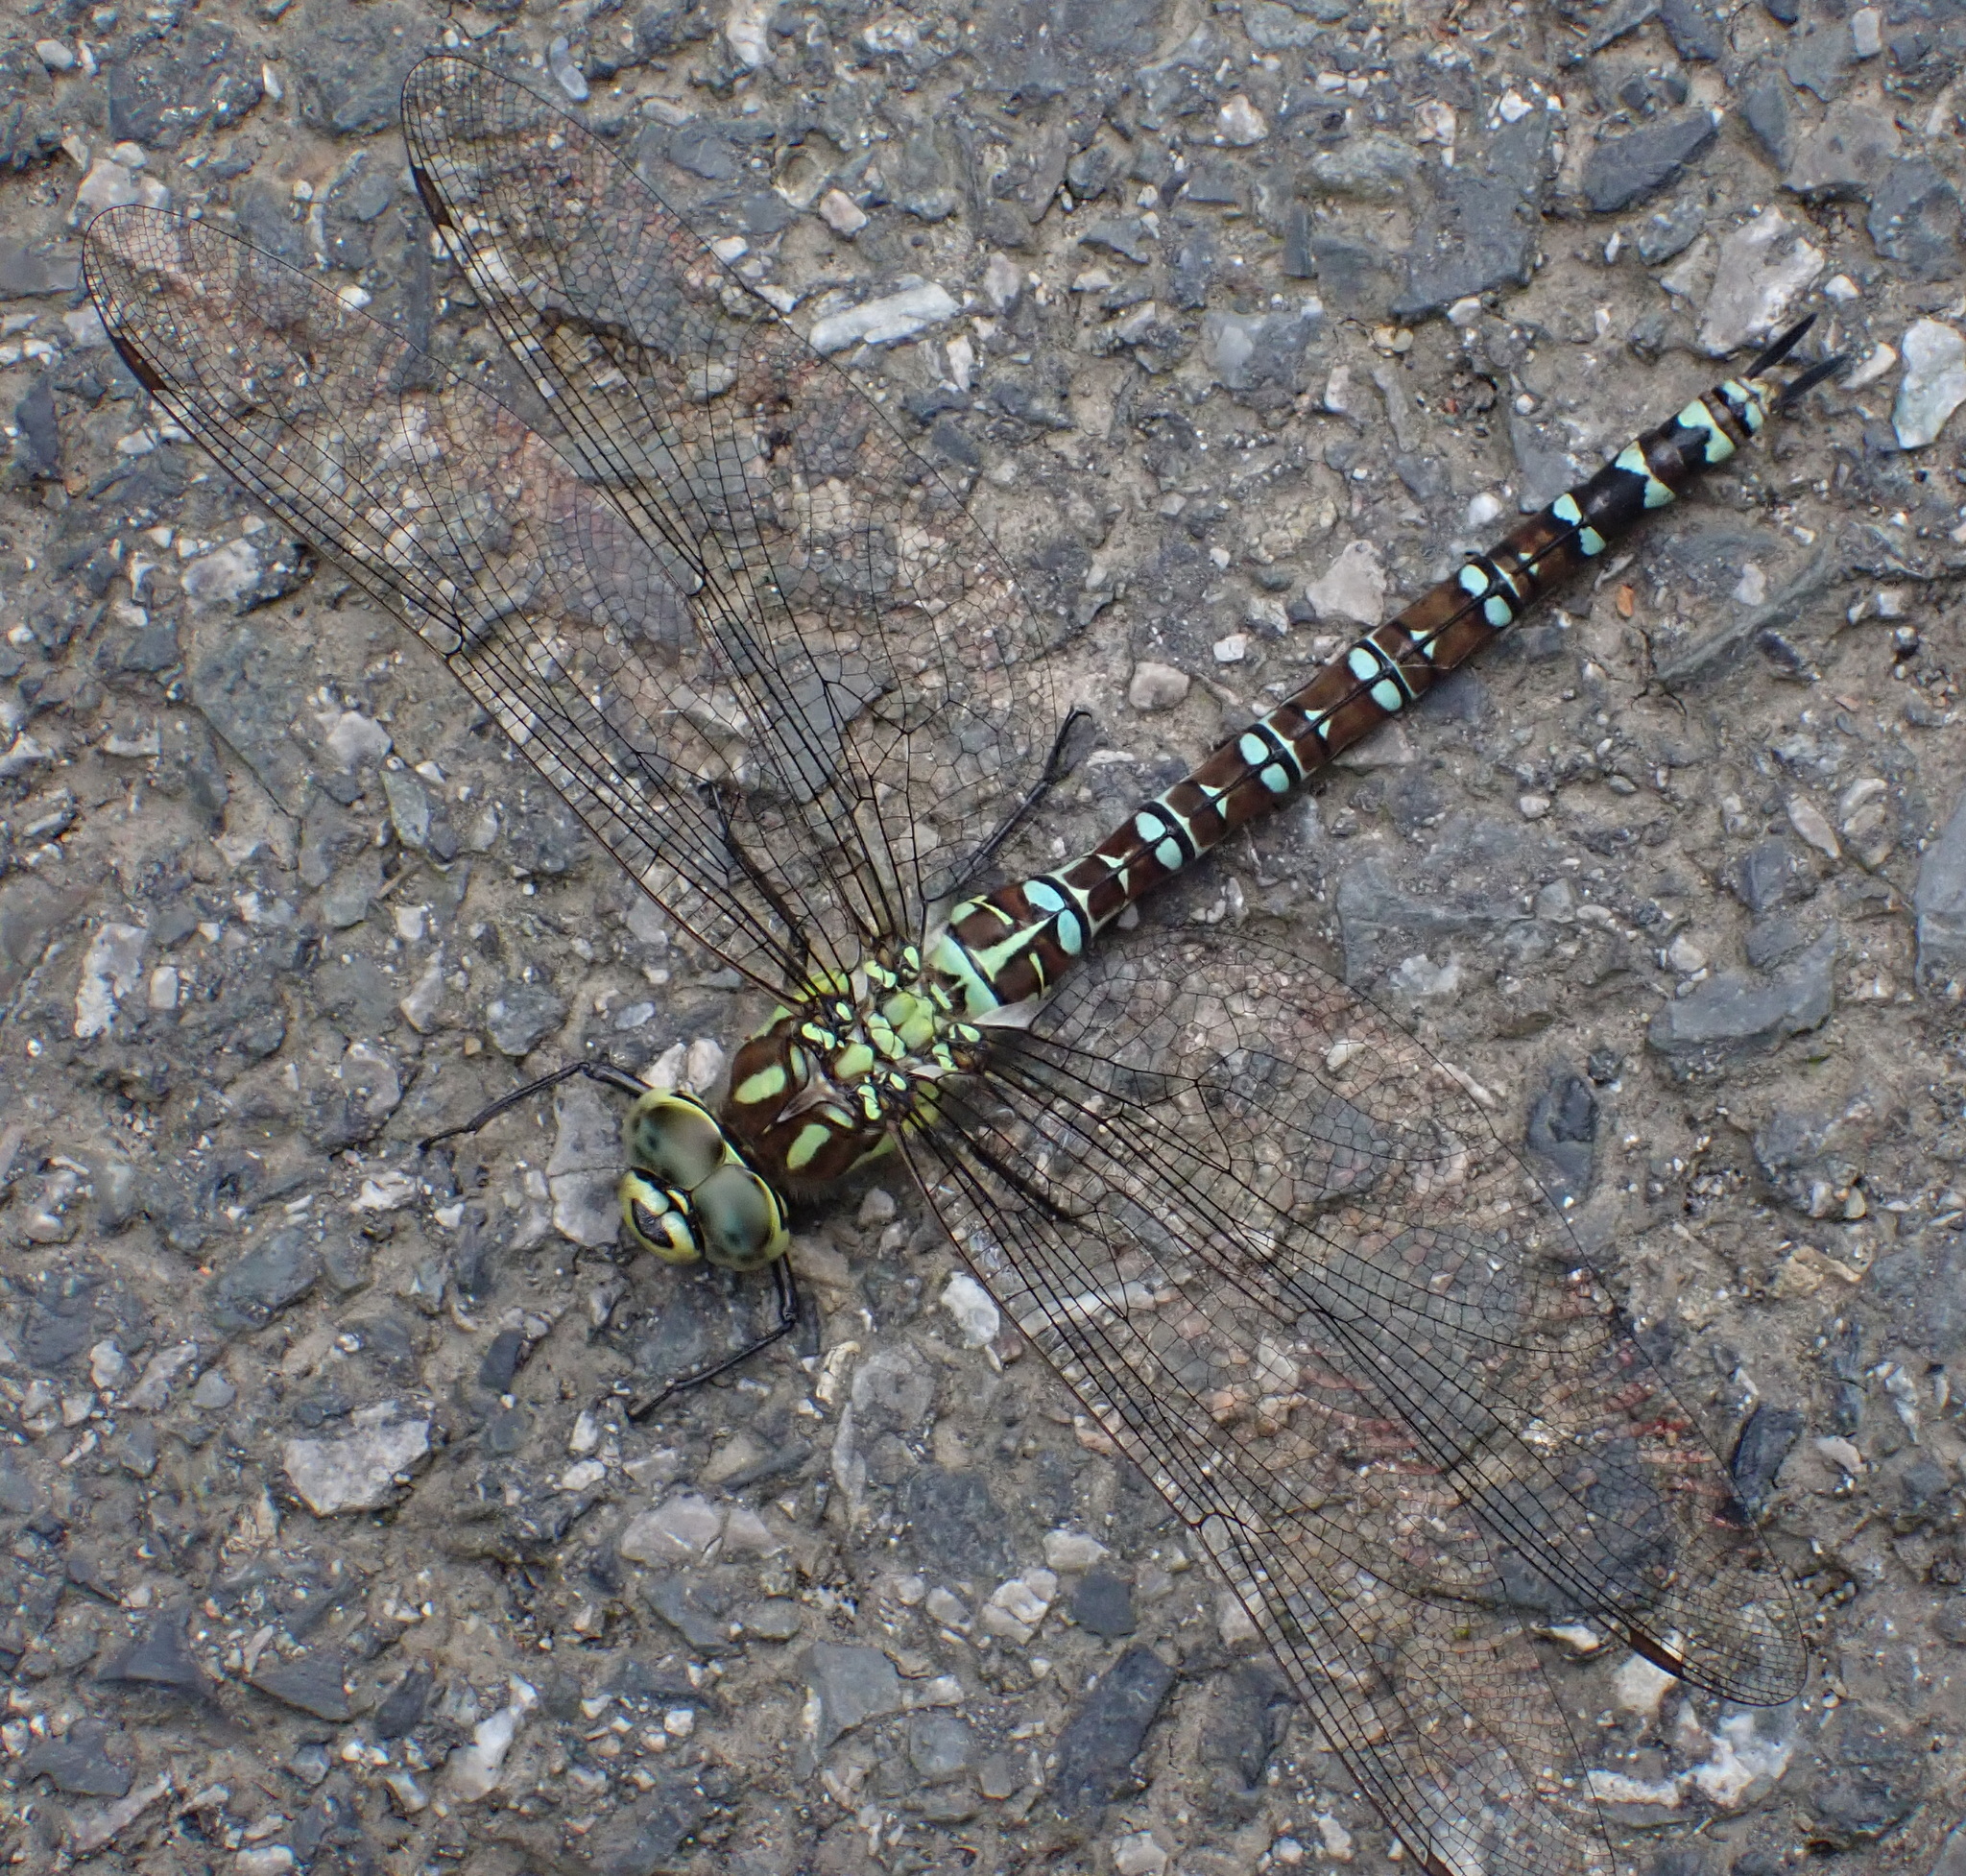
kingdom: Animalia
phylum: Arthropoda
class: Insecta
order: Odonata
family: Aeshnidae
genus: Aeshna
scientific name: Aeshna cyanea
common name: Southern hawker
